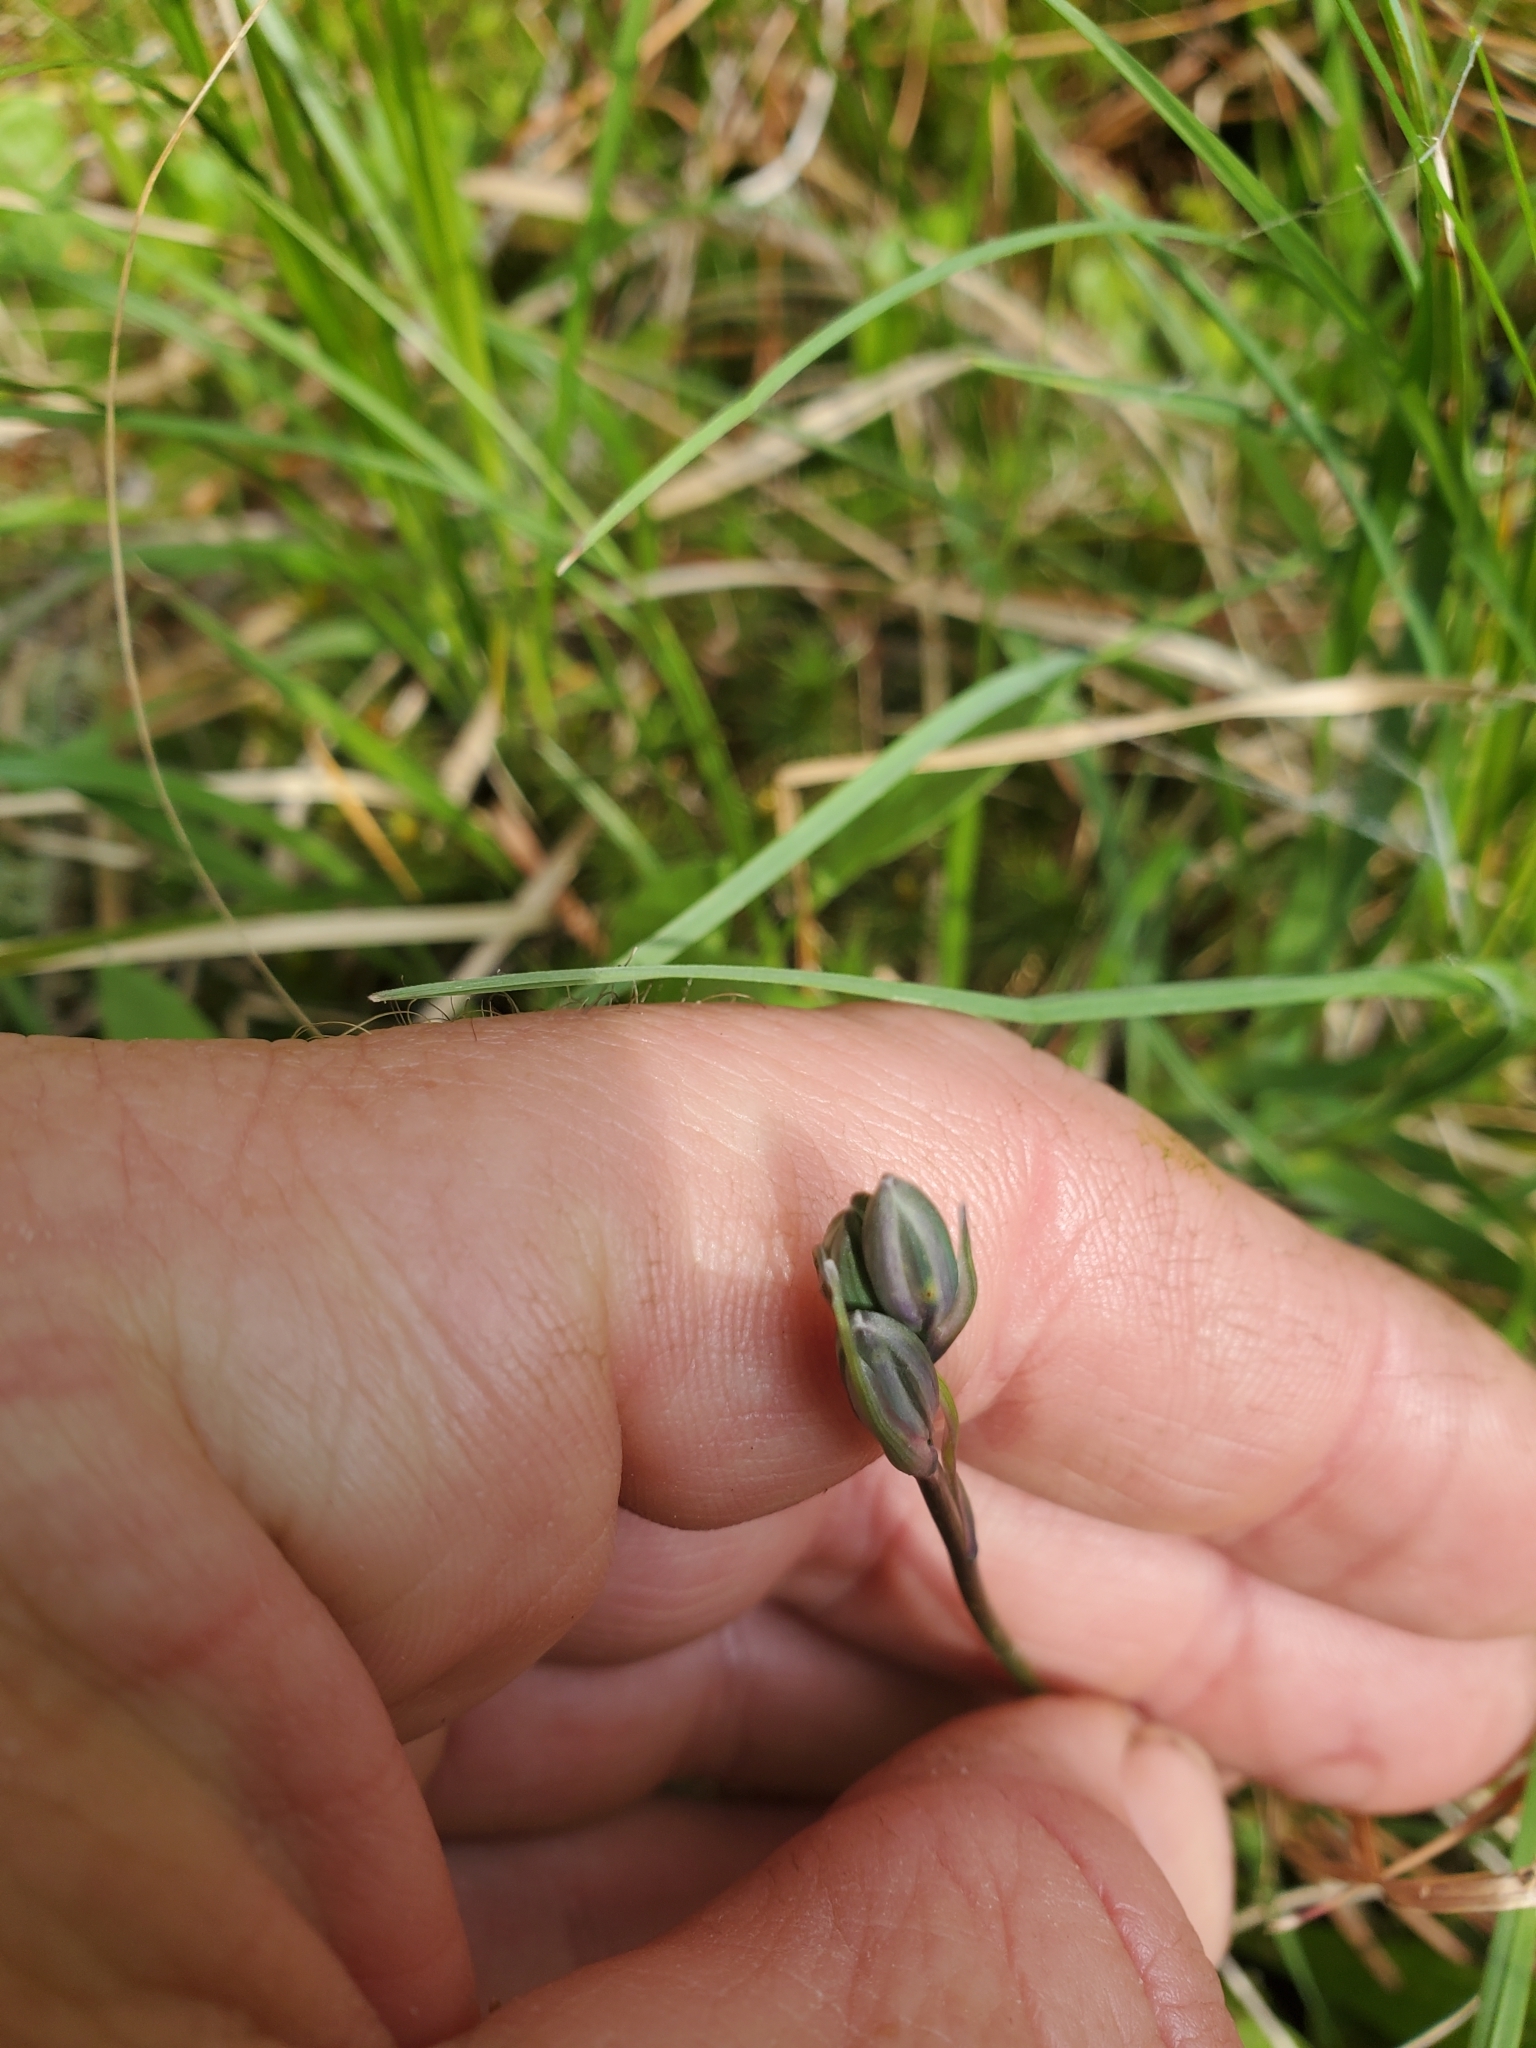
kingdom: Plantae
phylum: Tracheophyta
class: Liliopsida
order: Asparagales
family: Asparagaceae
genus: Camassia
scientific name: Camassia quamash
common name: Common camas
